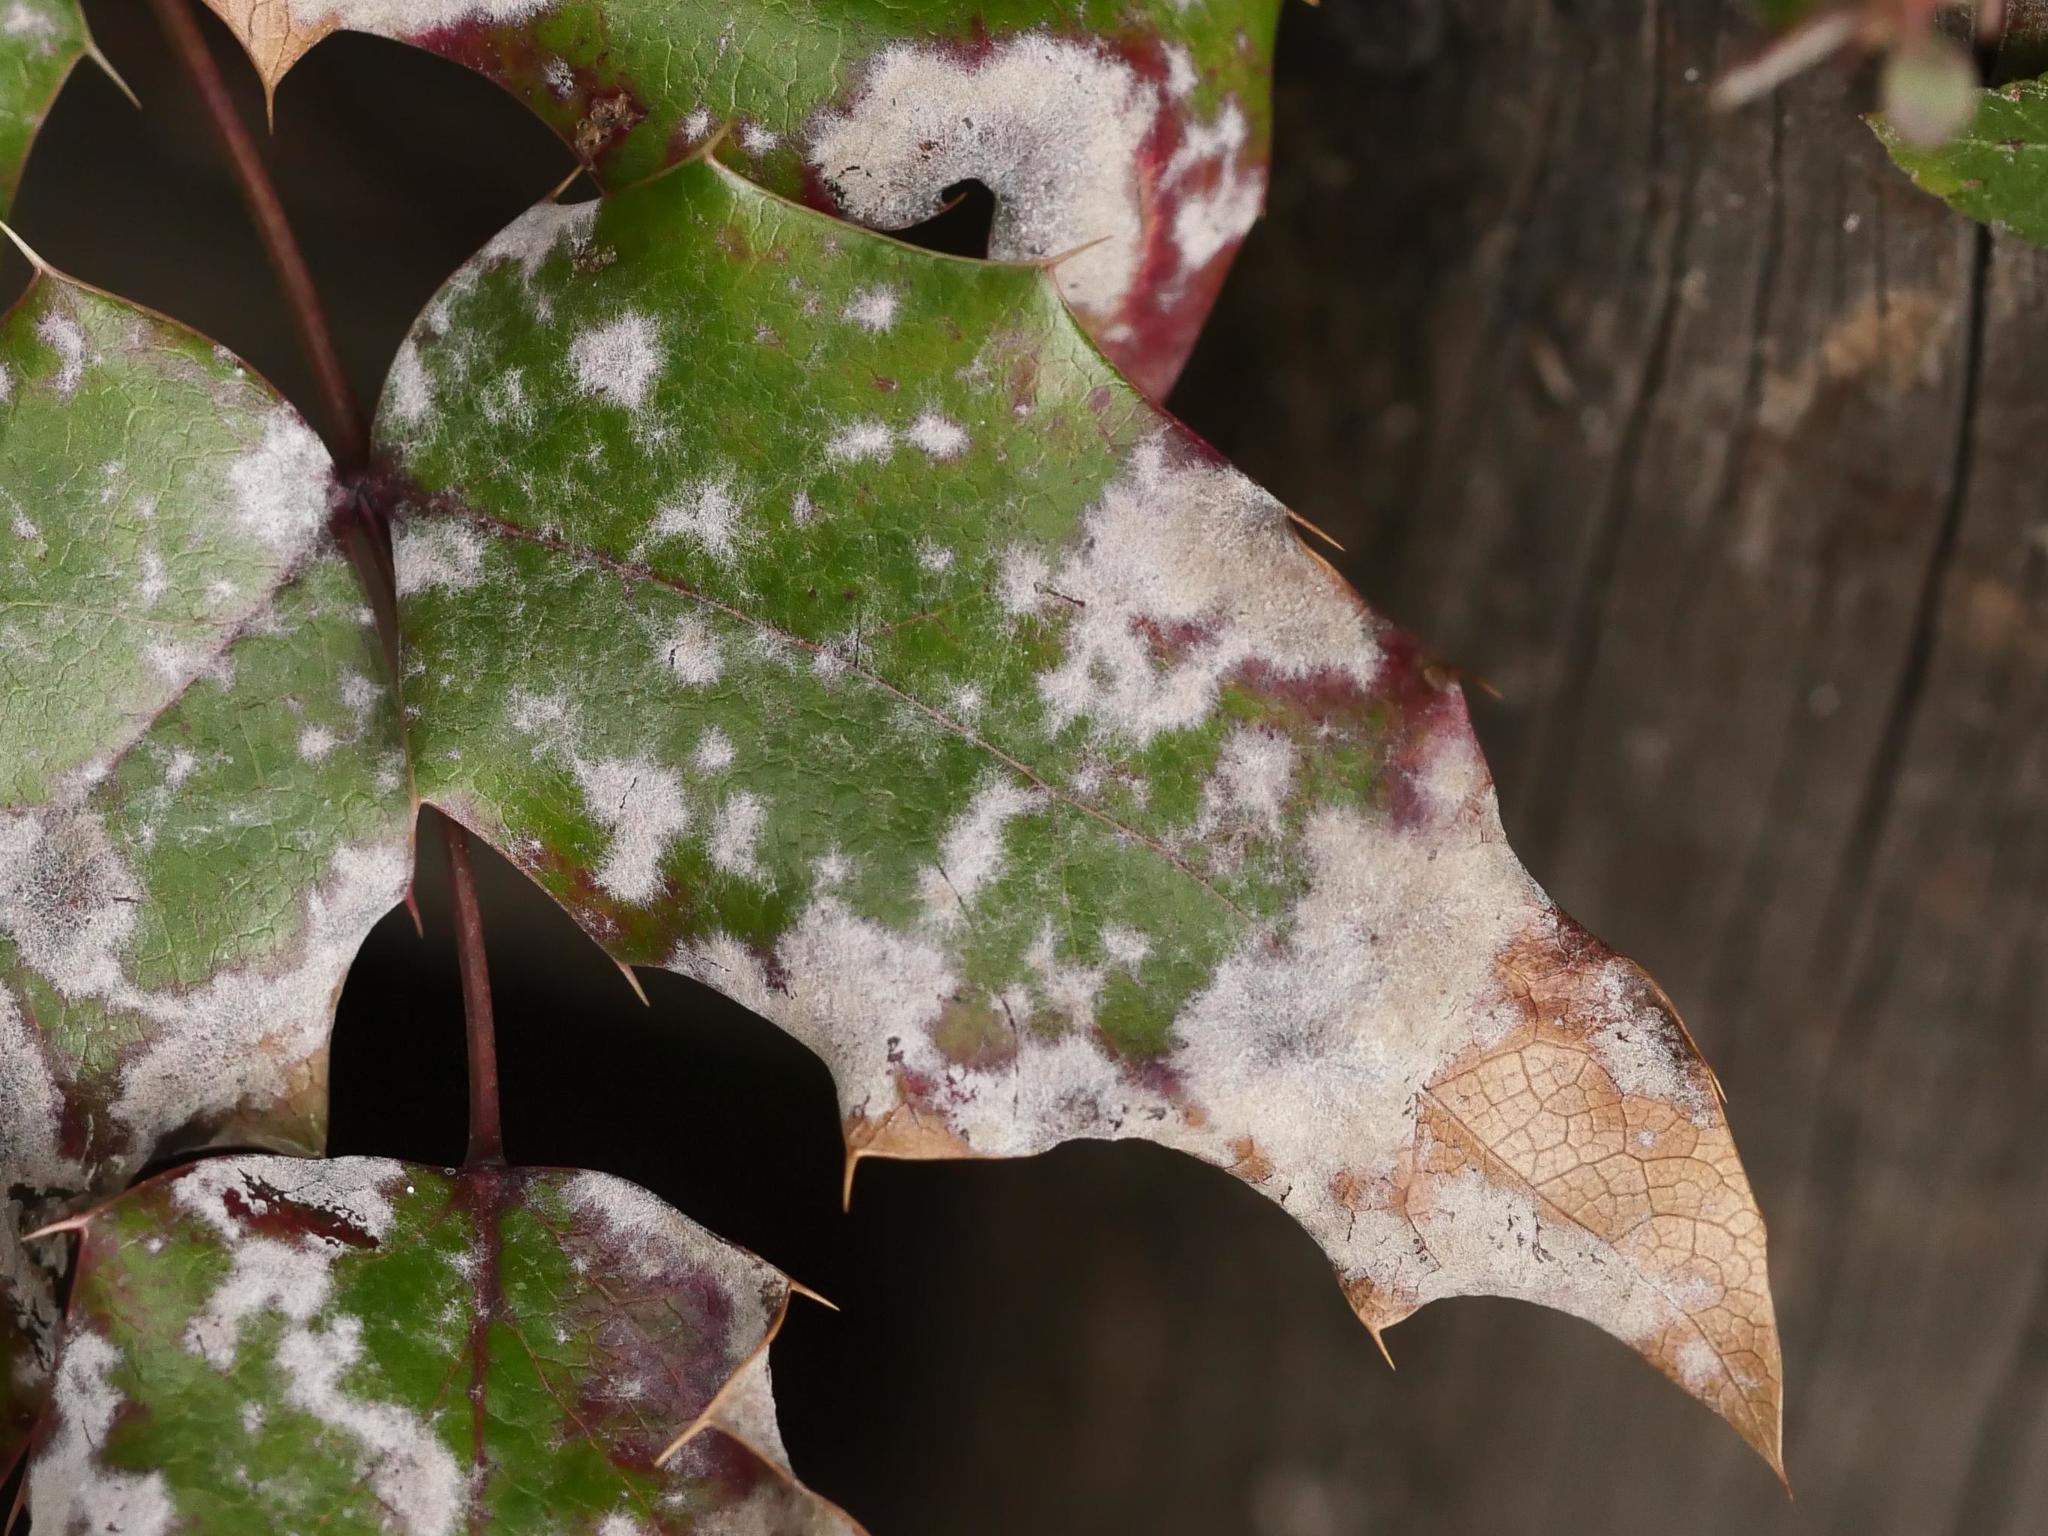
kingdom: Fungi
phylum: Ascomycota
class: Leotiomycetes
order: Helotiales
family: Erysiphaceae
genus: Erysiphe
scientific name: Erysiphe berberidis
